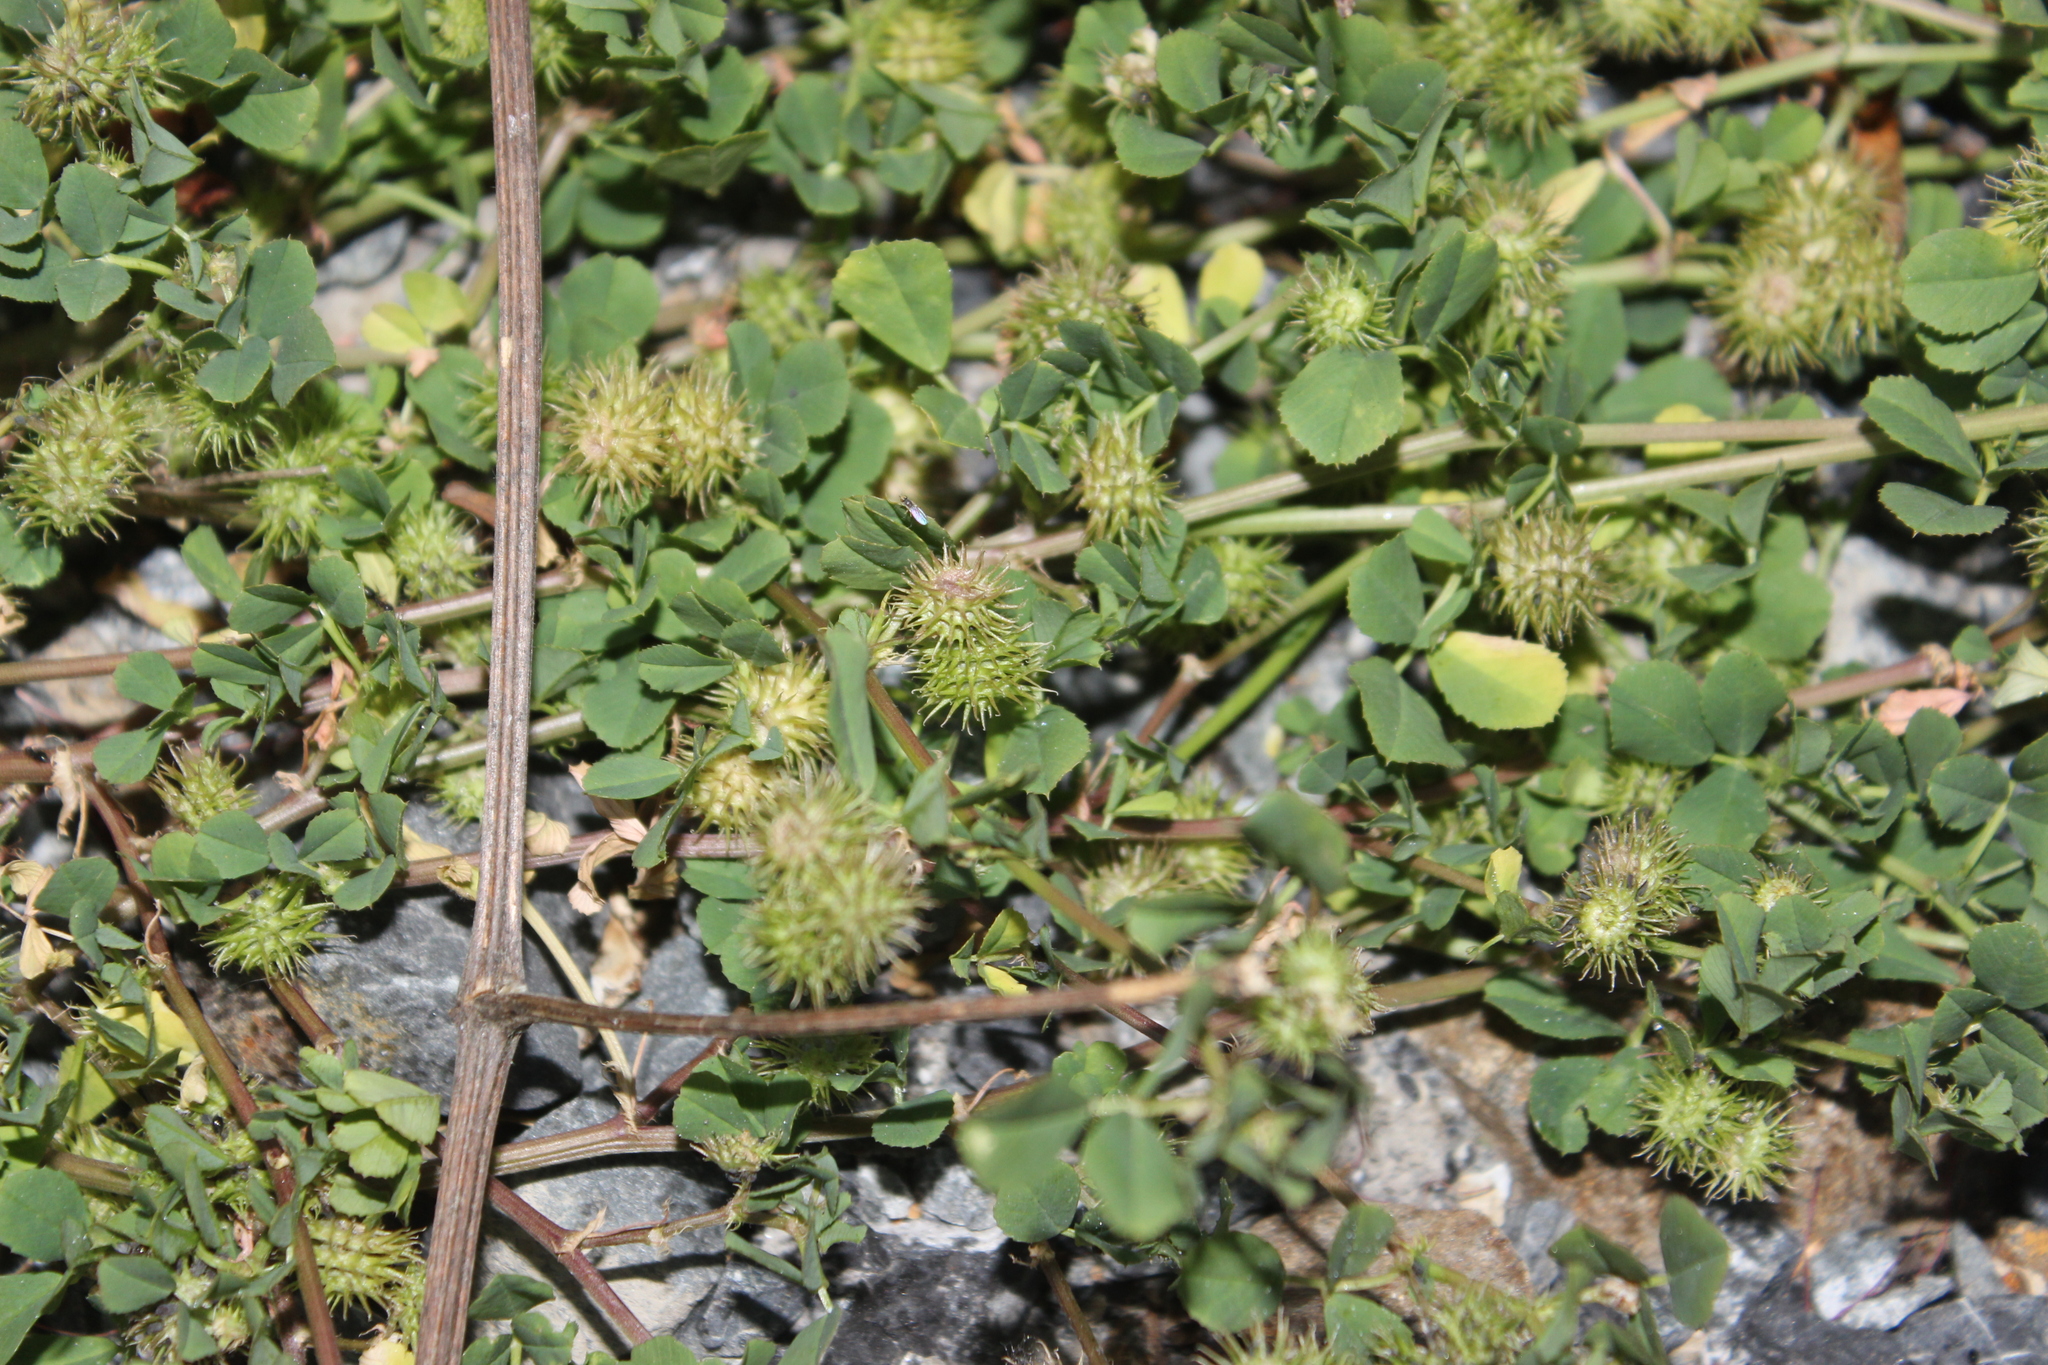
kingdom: Plantae
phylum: Tracheophyta
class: Magnoliopsida
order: Fabales
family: Fabaceae
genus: Medicago
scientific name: Medicago polymorpha
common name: Burclover
